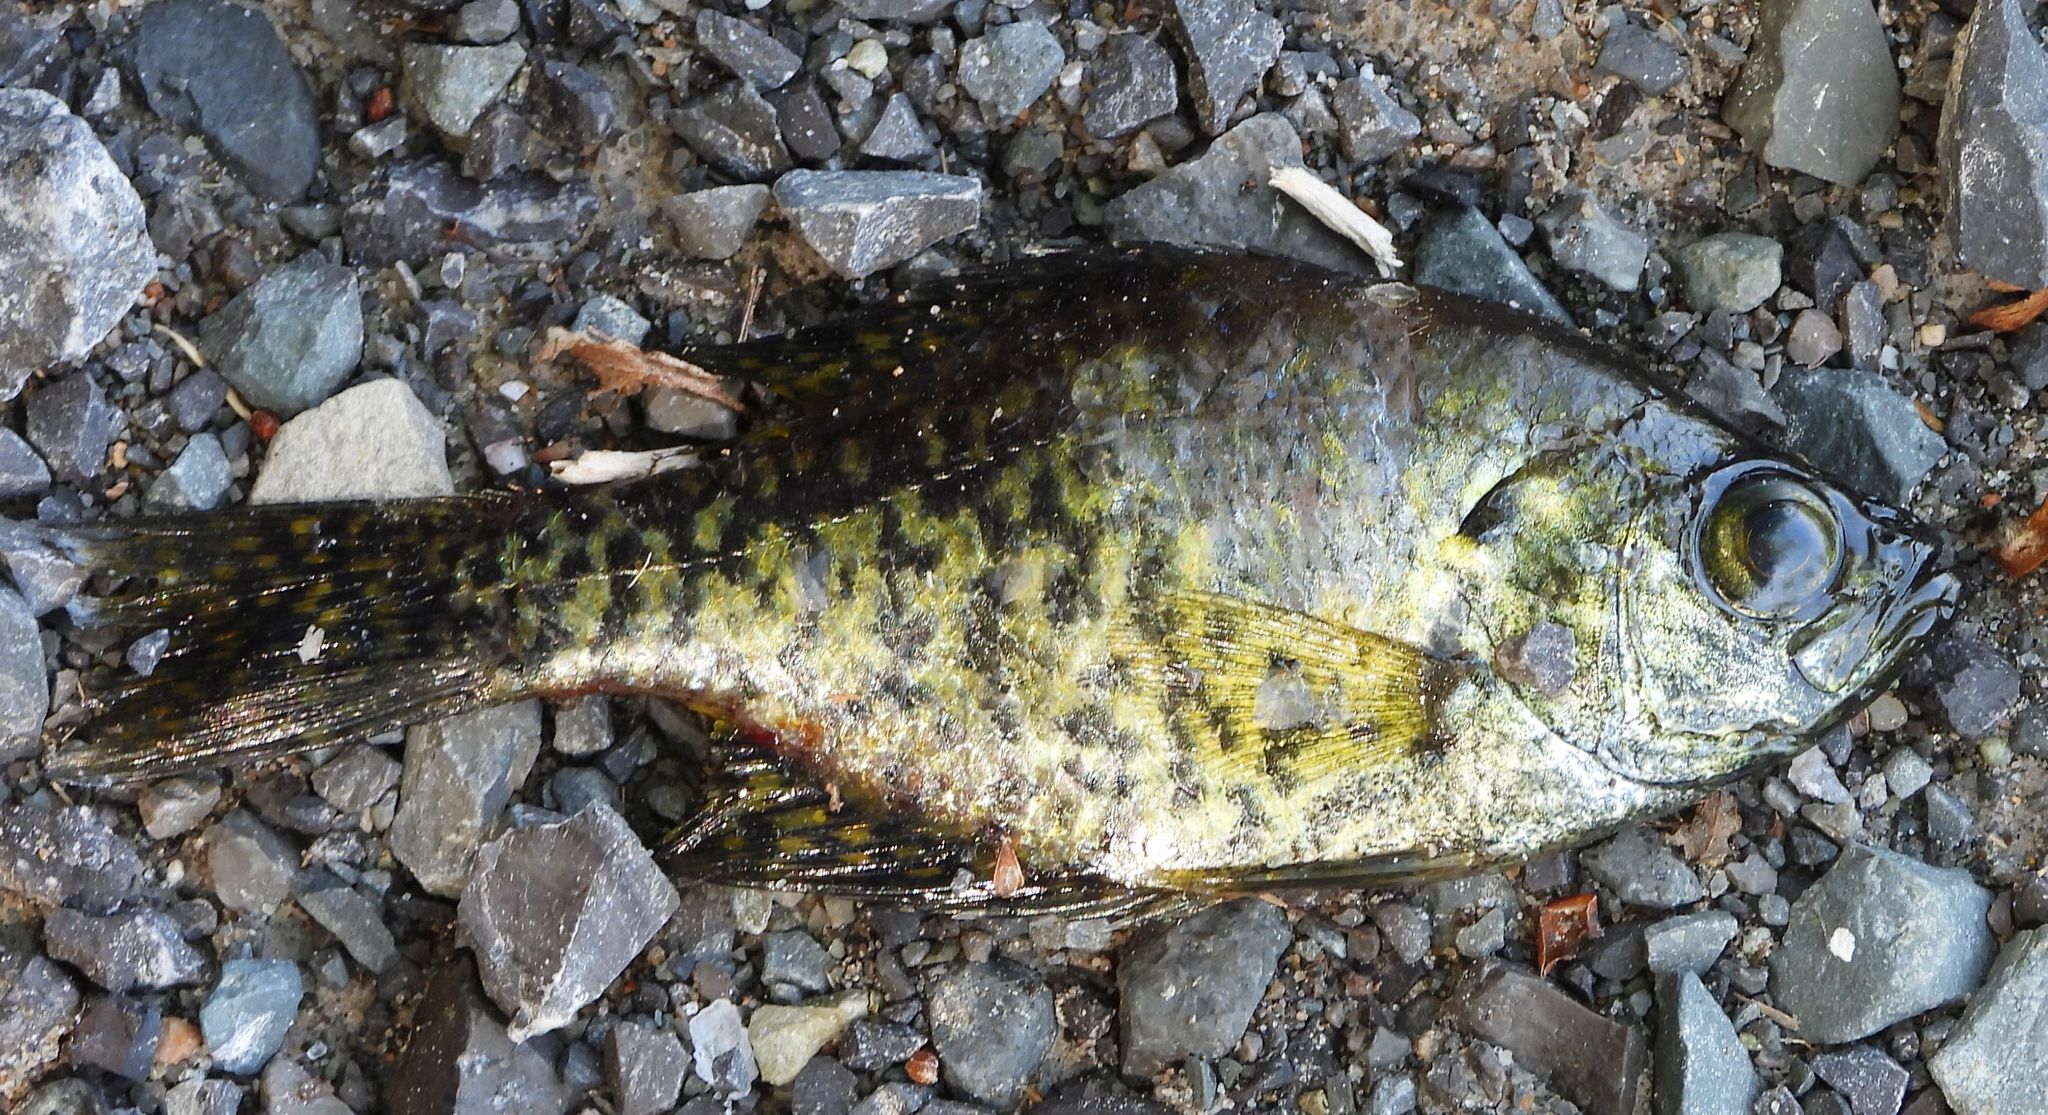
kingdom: Animalia
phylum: Chordata
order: Perciformes
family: Centrarchidae
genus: Pomoxis
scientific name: Pomoxis nigromaculatus
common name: Black crappie
